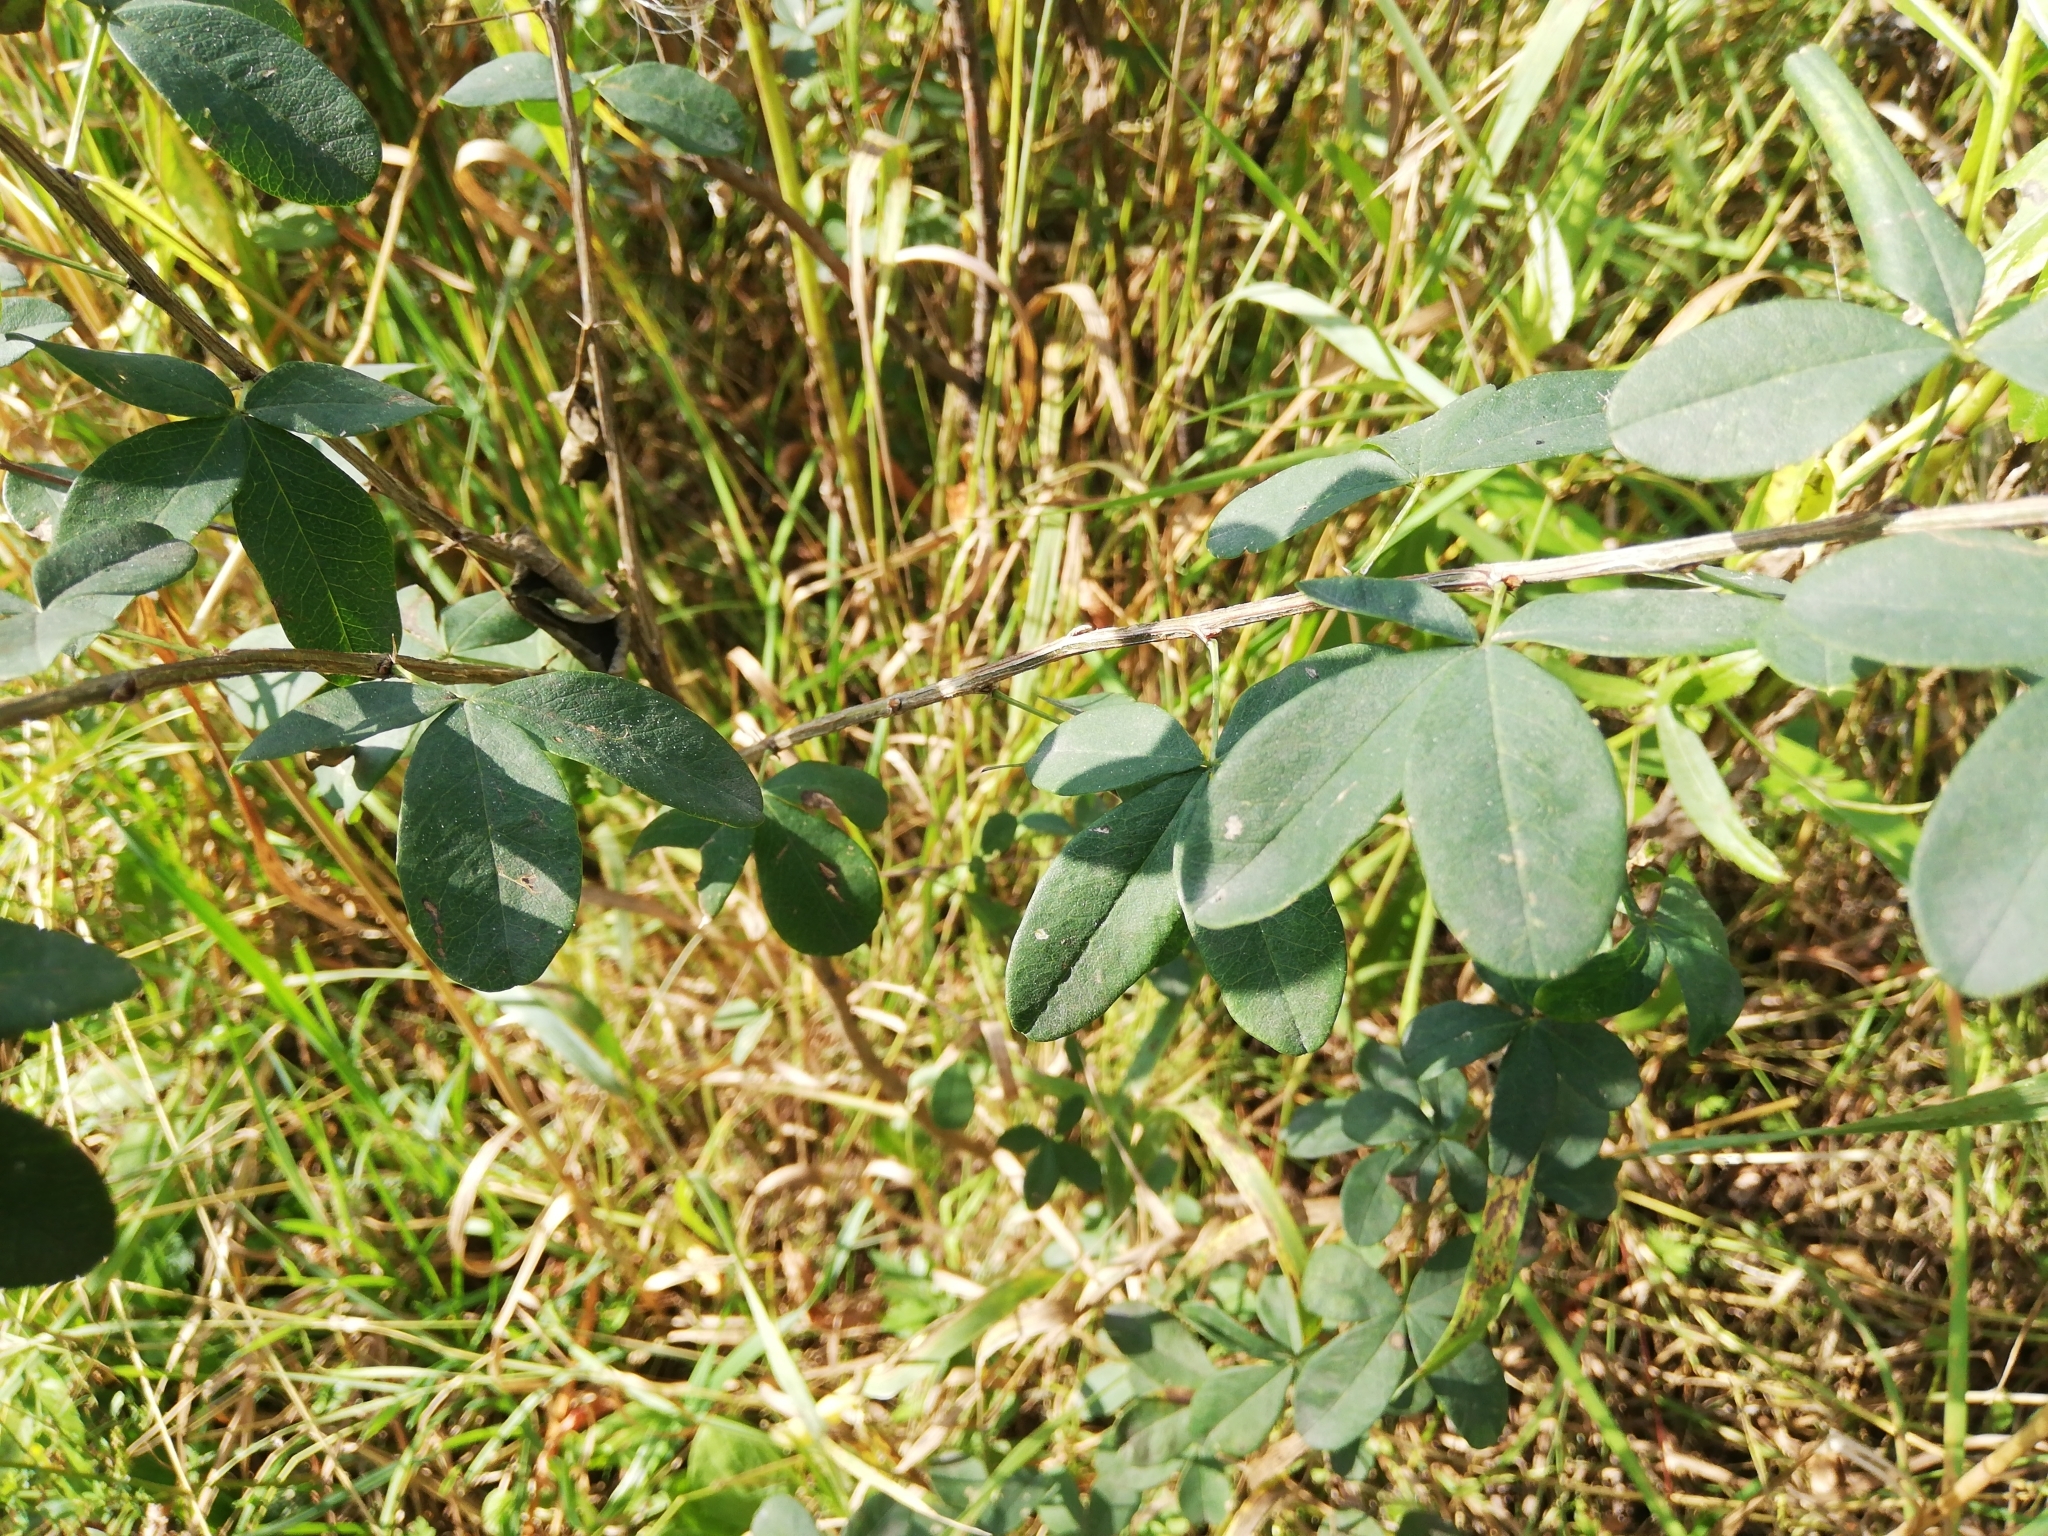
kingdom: Plantae
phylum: Tracheophyta
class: Magnoliopsida
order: Fabales
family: Fabaceae
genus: Caragana
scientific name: Caragana frutex
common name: Russian peashrub
